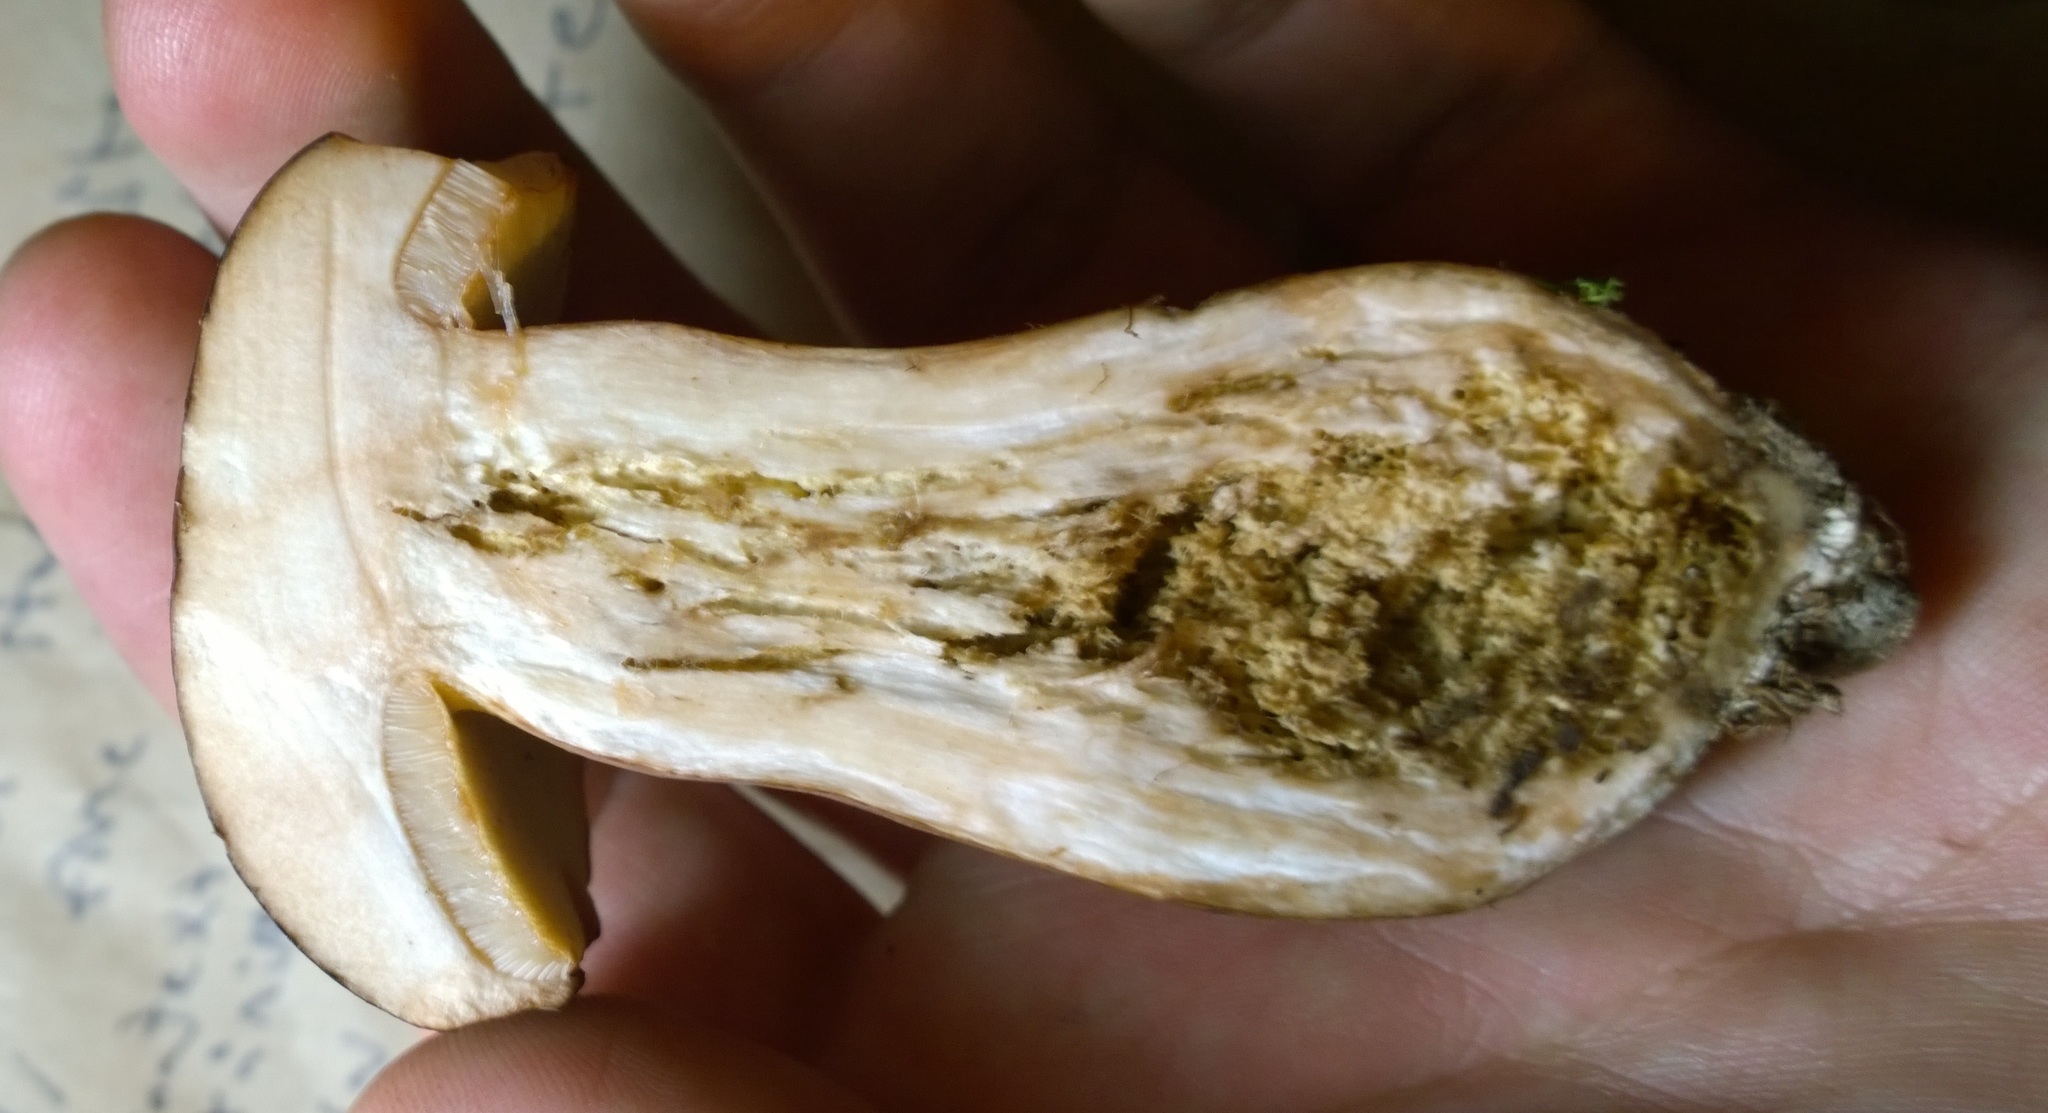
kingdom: Fungi
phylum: Basidiomycota
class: Agaricomycetes
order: Boletales
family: Boletaceae
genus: Tylopilus
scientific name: Tylopilus badiceps
